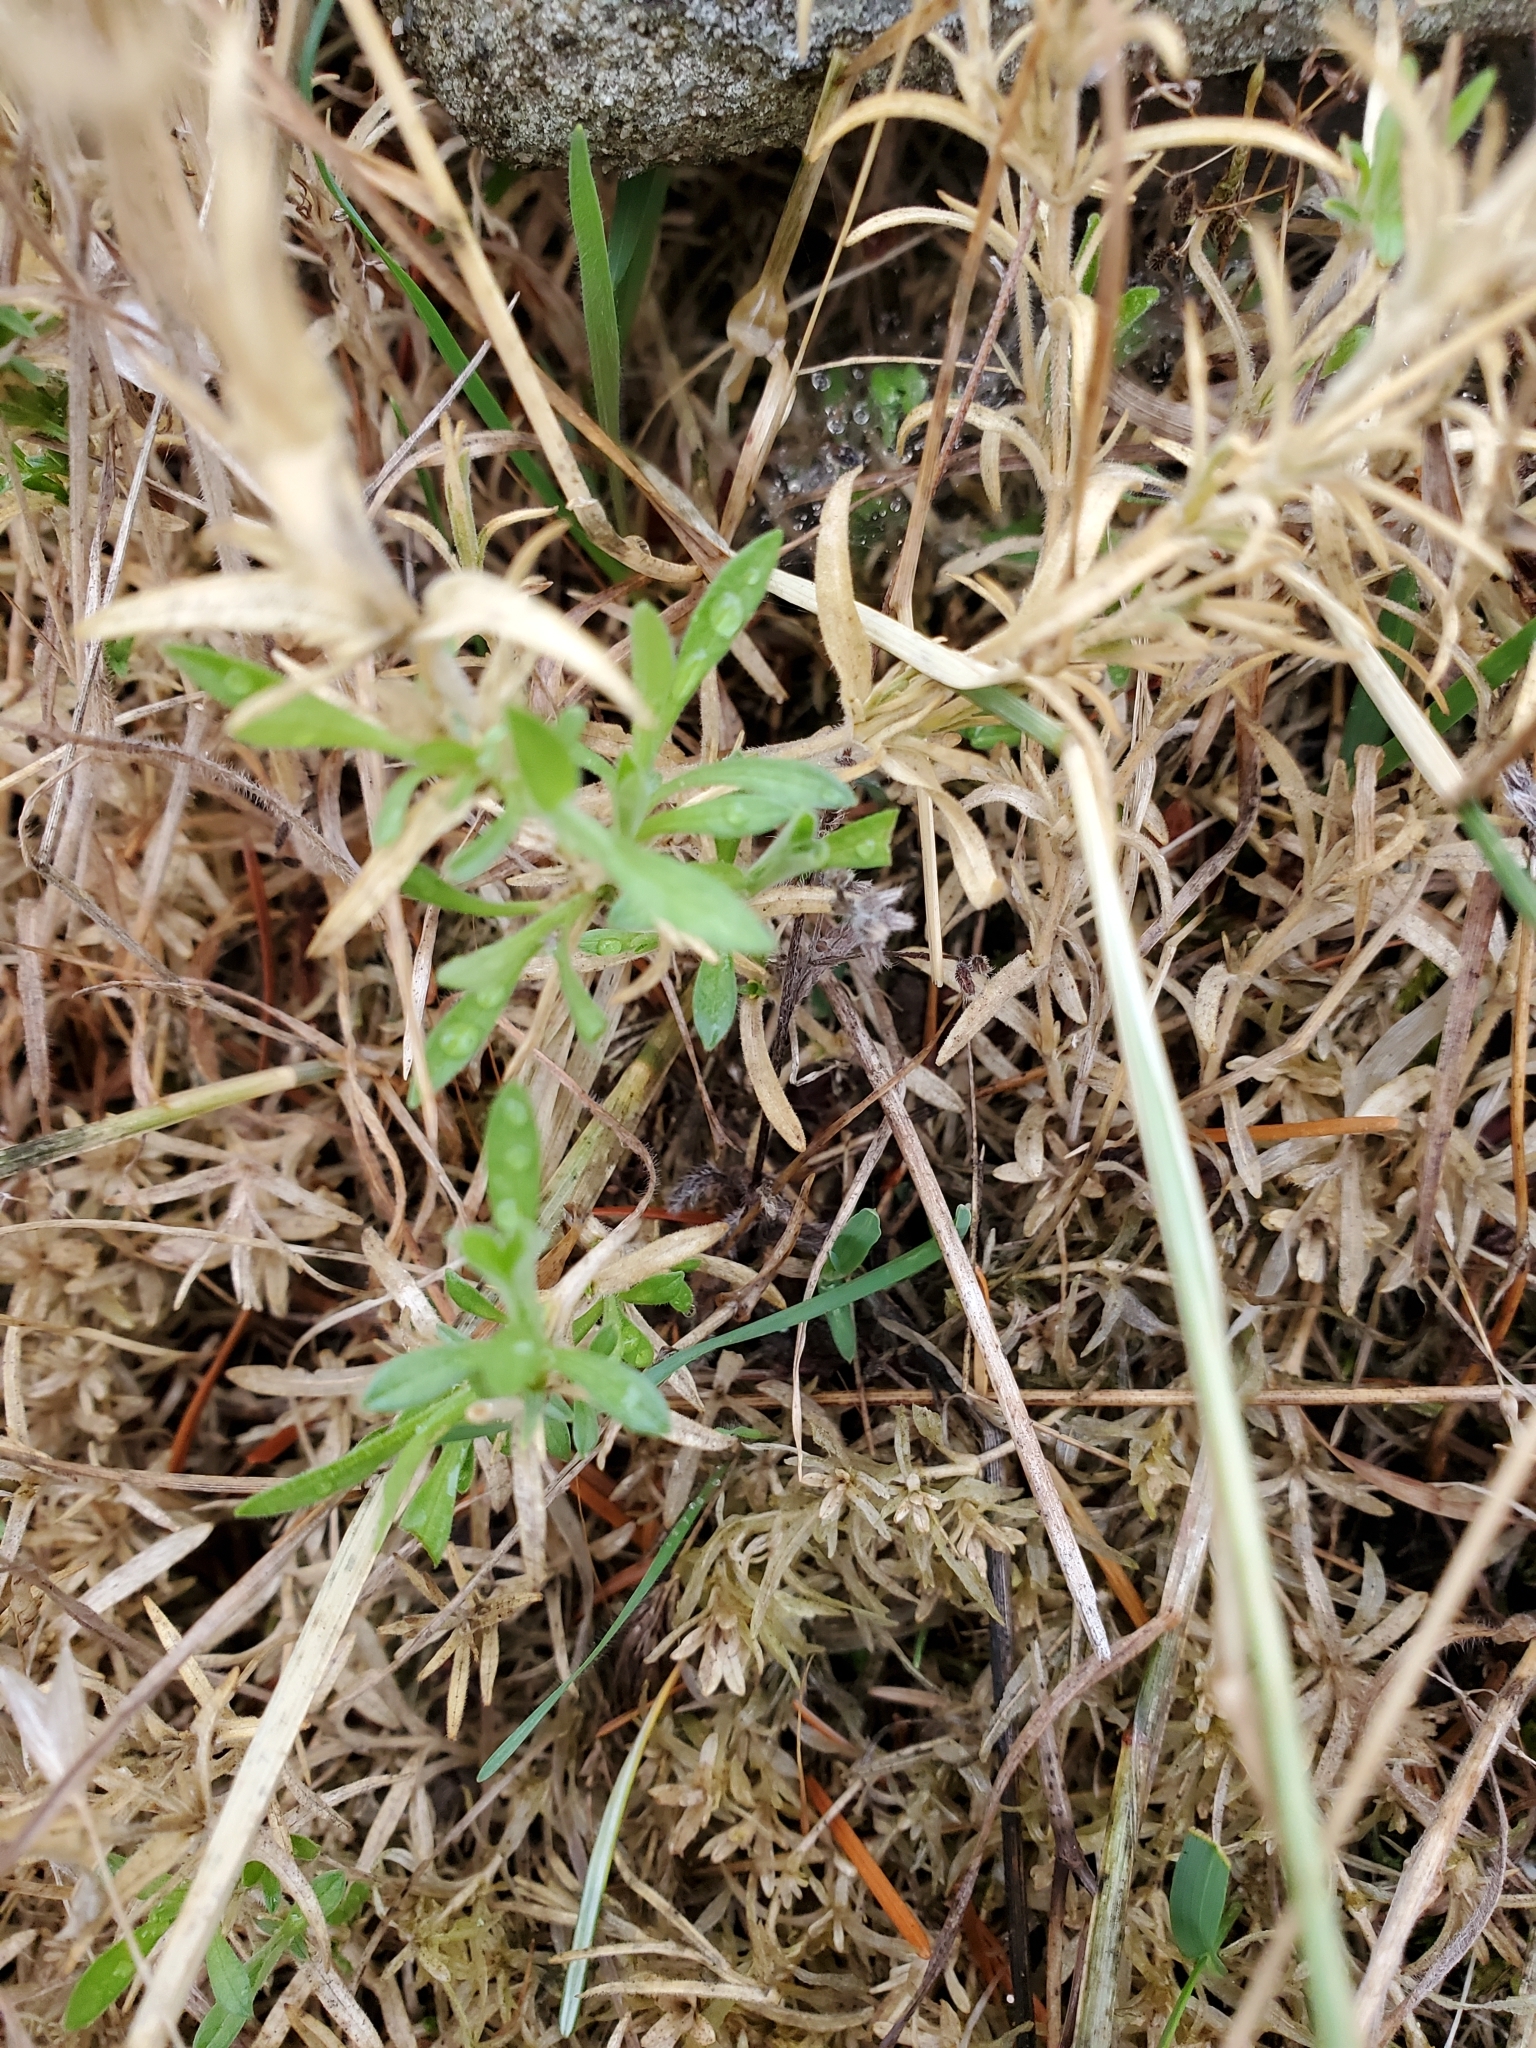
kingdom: Plantae
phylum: Tracheophyta
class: Magnoliopsida
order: Caryophyllales
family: Caryophyllaceae
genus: Cerastium
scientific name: Cerastium arvense
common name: Field mouse-ear
